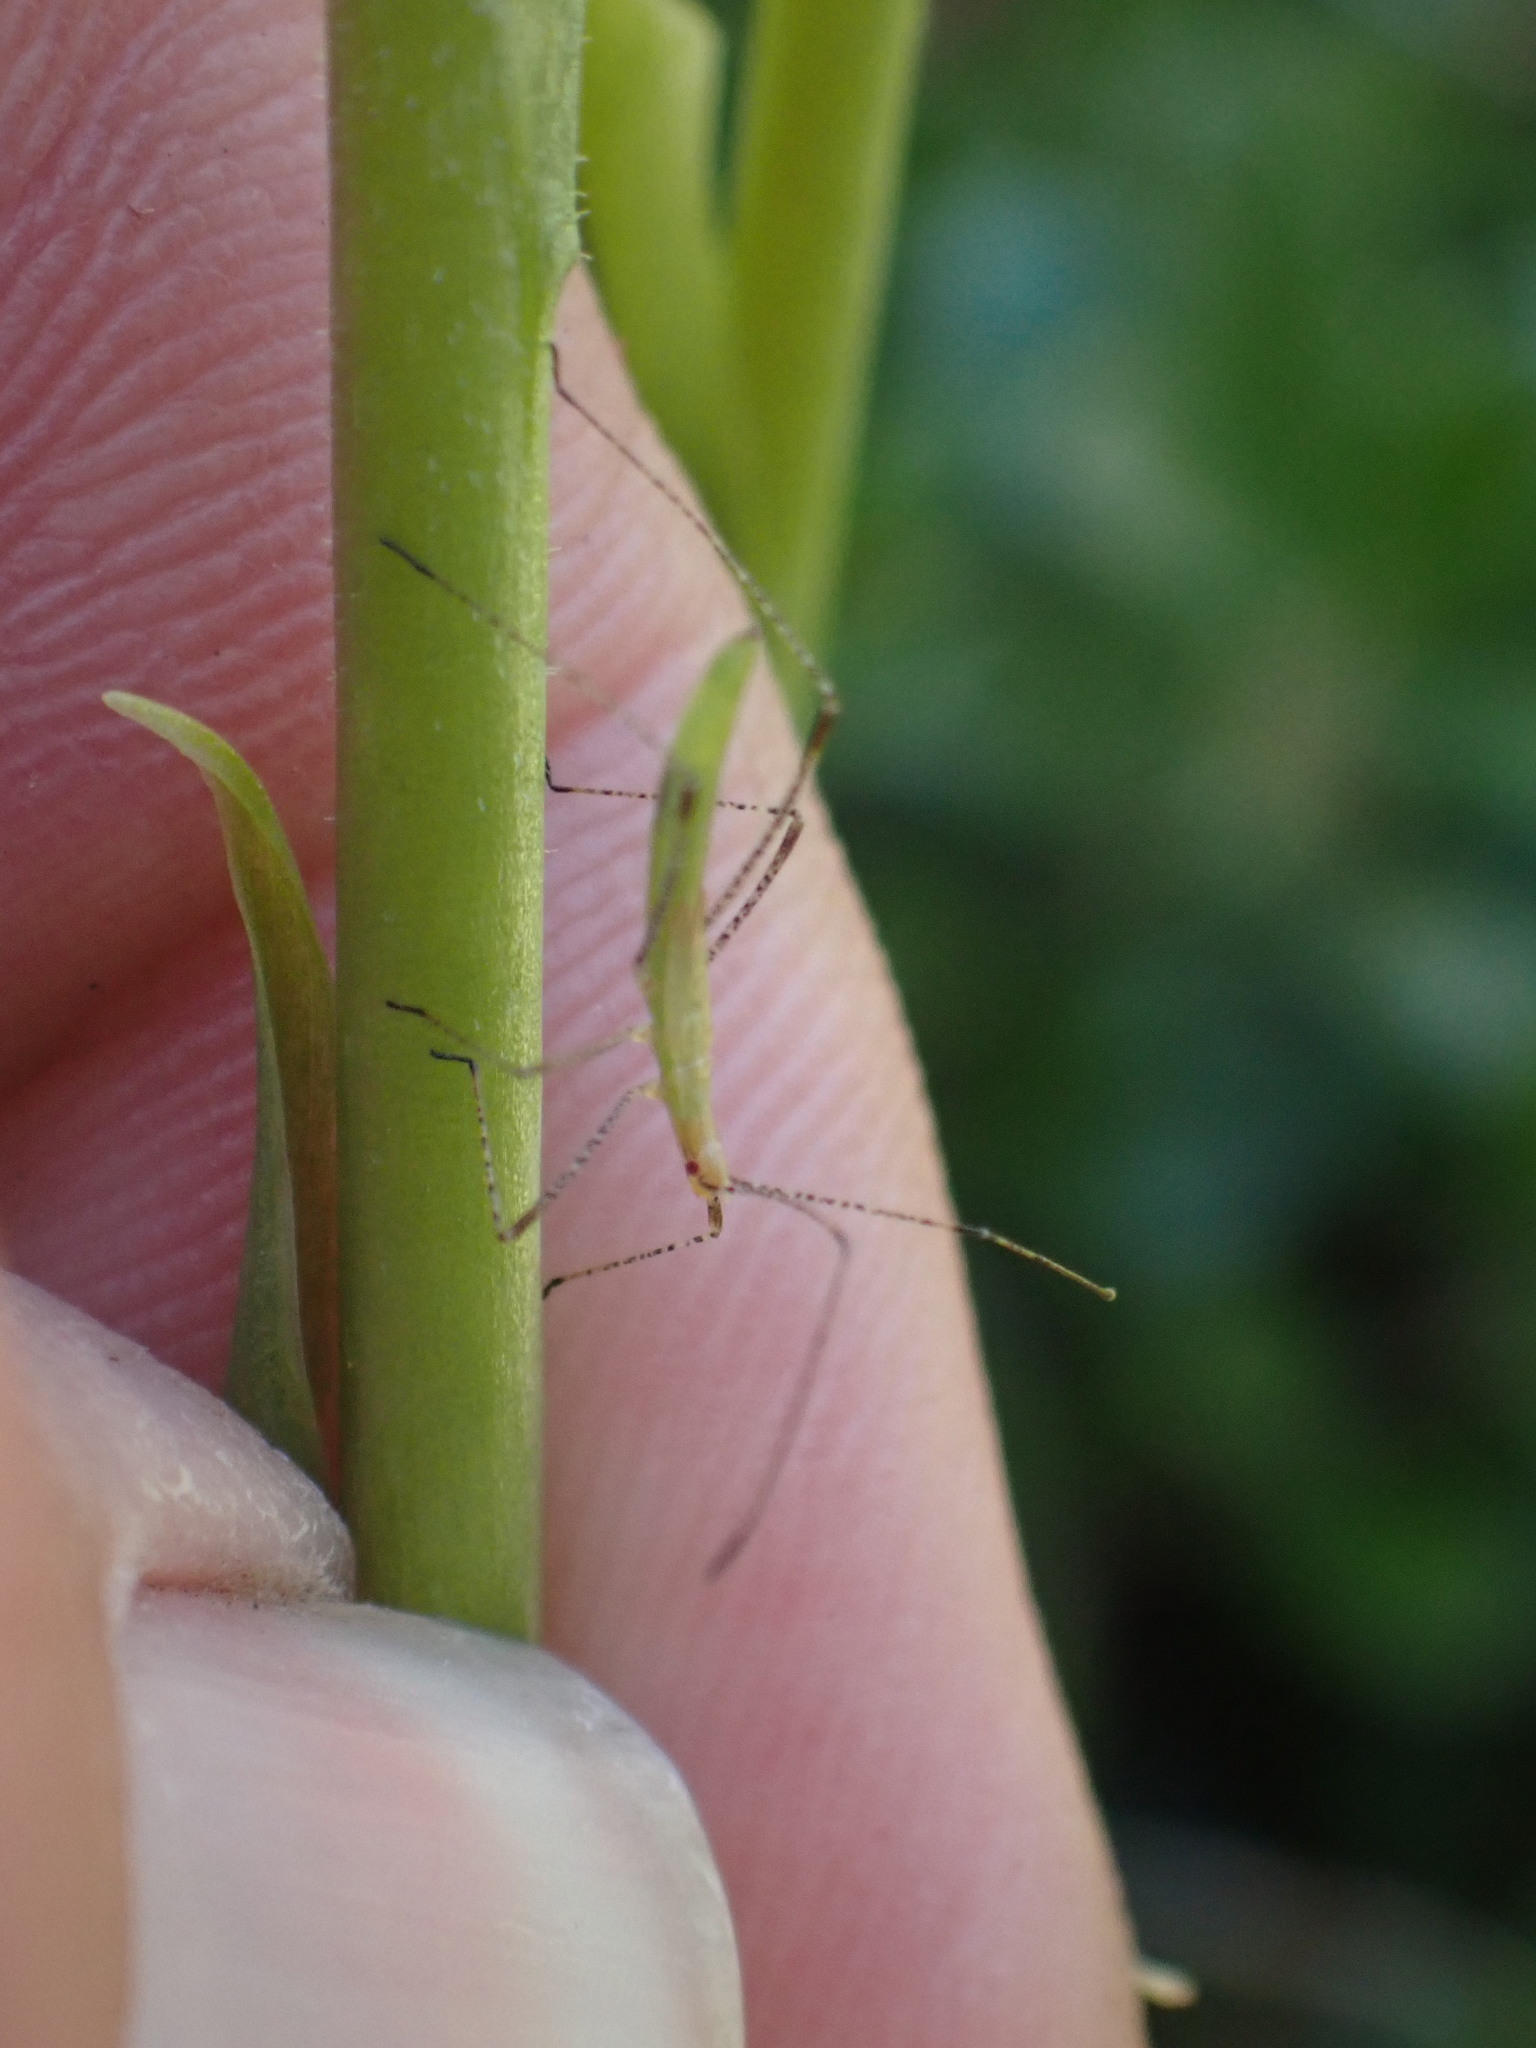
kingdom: Plantae
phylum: Tracheophyta
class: Liliopsida
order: Asparagales
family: Orchidaceae
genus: Spiranthes
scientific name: Spiranthes romanzoffiana
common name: Irish lady's-tresses
